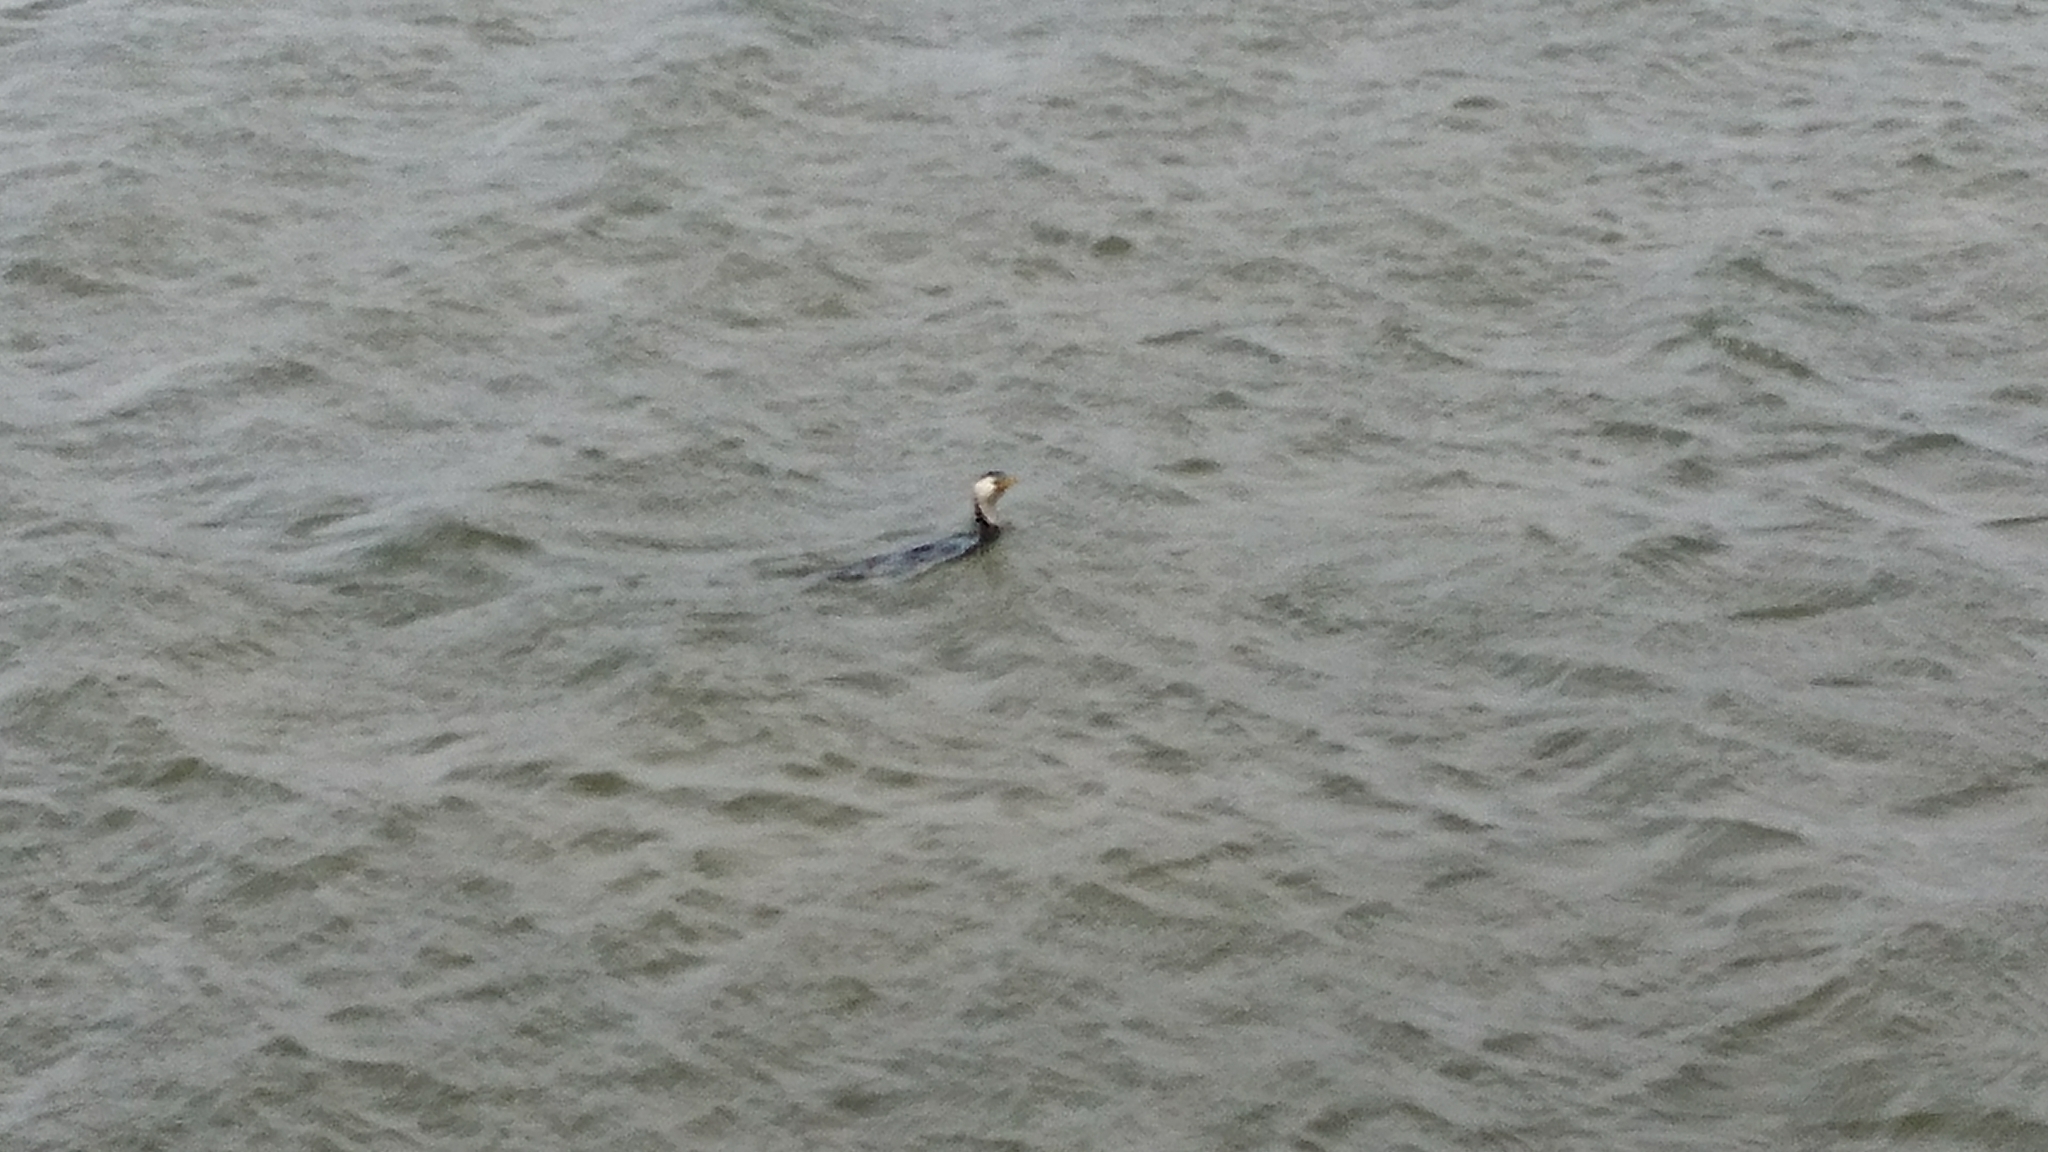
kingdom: Animalia
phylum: Chordata
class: Aves
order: Suliformes
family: Phalacrocoracidae
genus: Microcarbo
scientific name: Microcarbo melanoleucos
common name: Little pied cormorant
